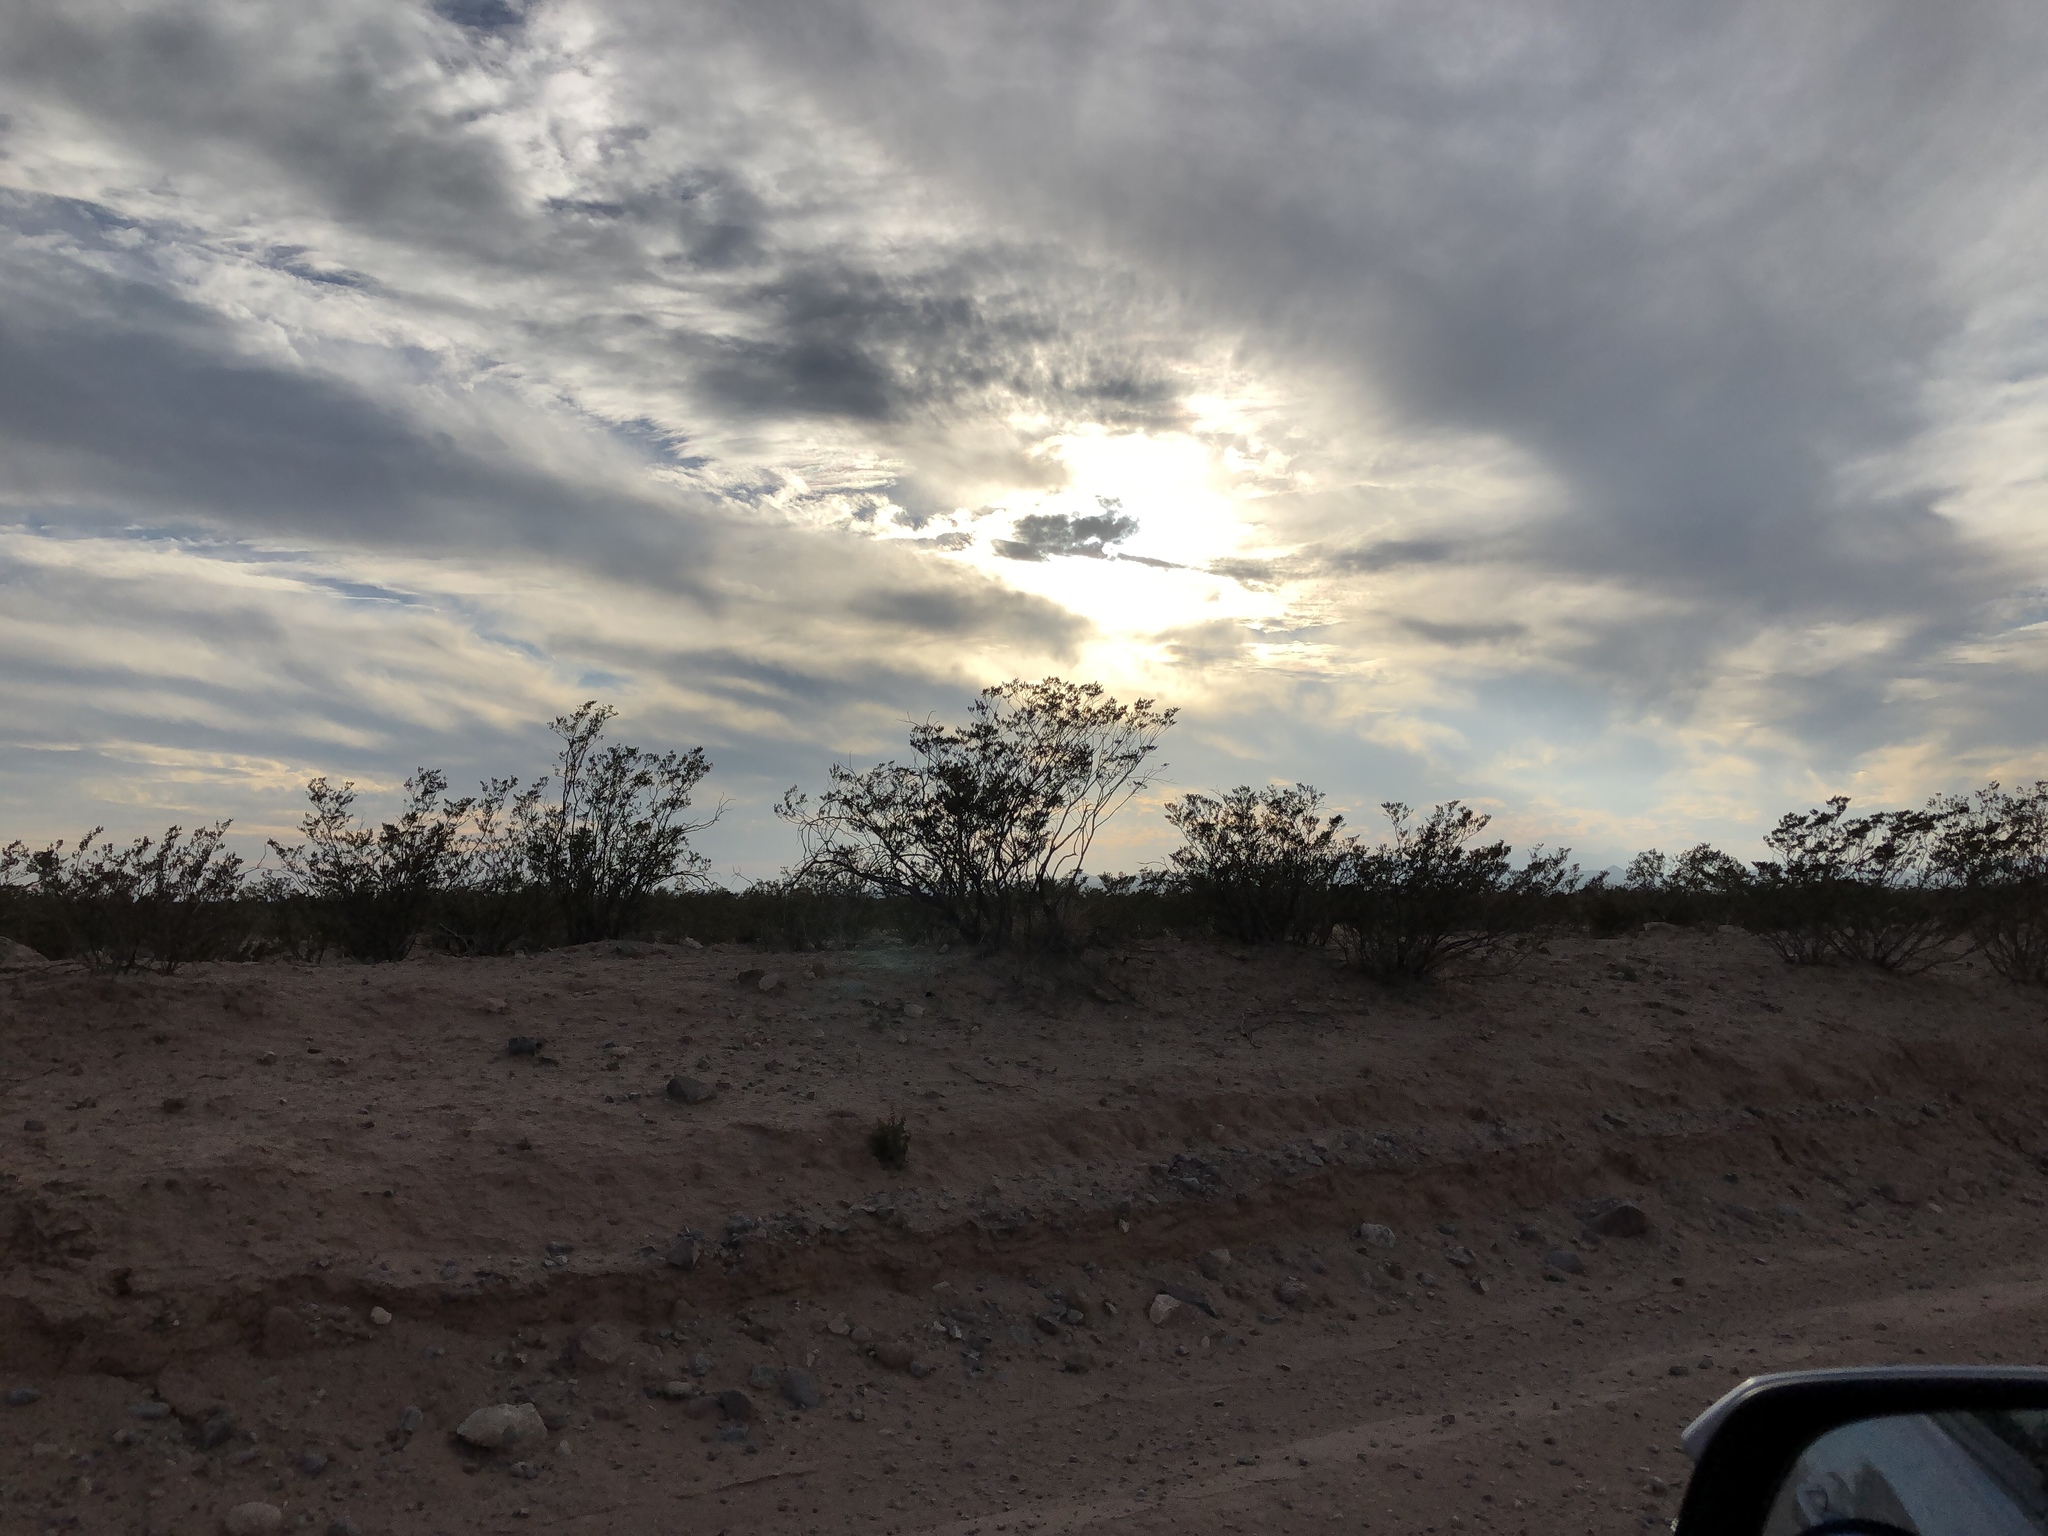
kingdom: Plantae
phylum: Tracheophyta
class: Magnoliopsida
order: Zygophyllales
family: Zygophyllaceae
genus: Larrea
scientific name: Larrea tridentata
